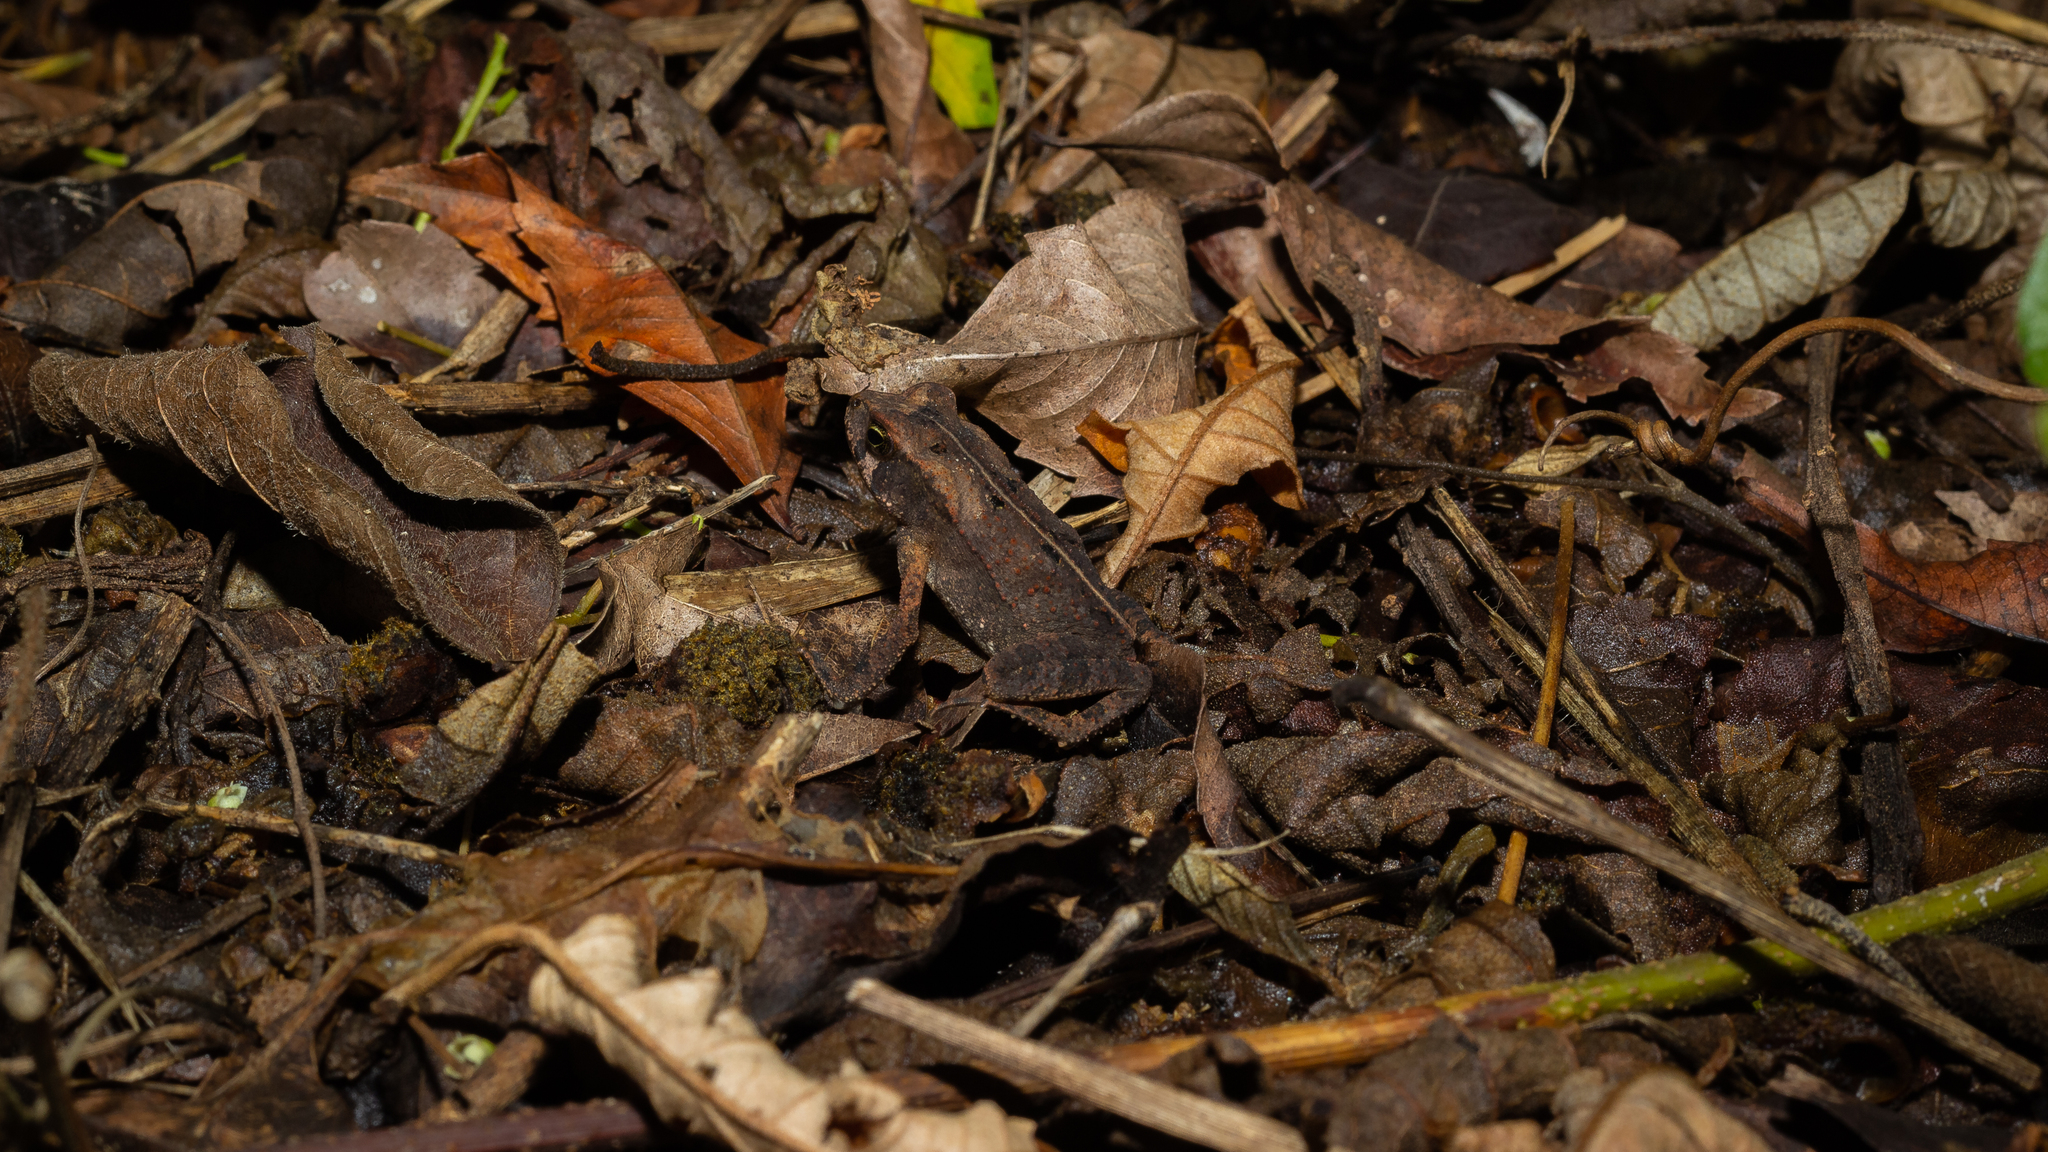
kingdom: Animalia
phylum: Chordata
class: Amphibia
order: Anura
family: Bufonidae
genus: Rhinella
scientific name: Rhinella ornata
